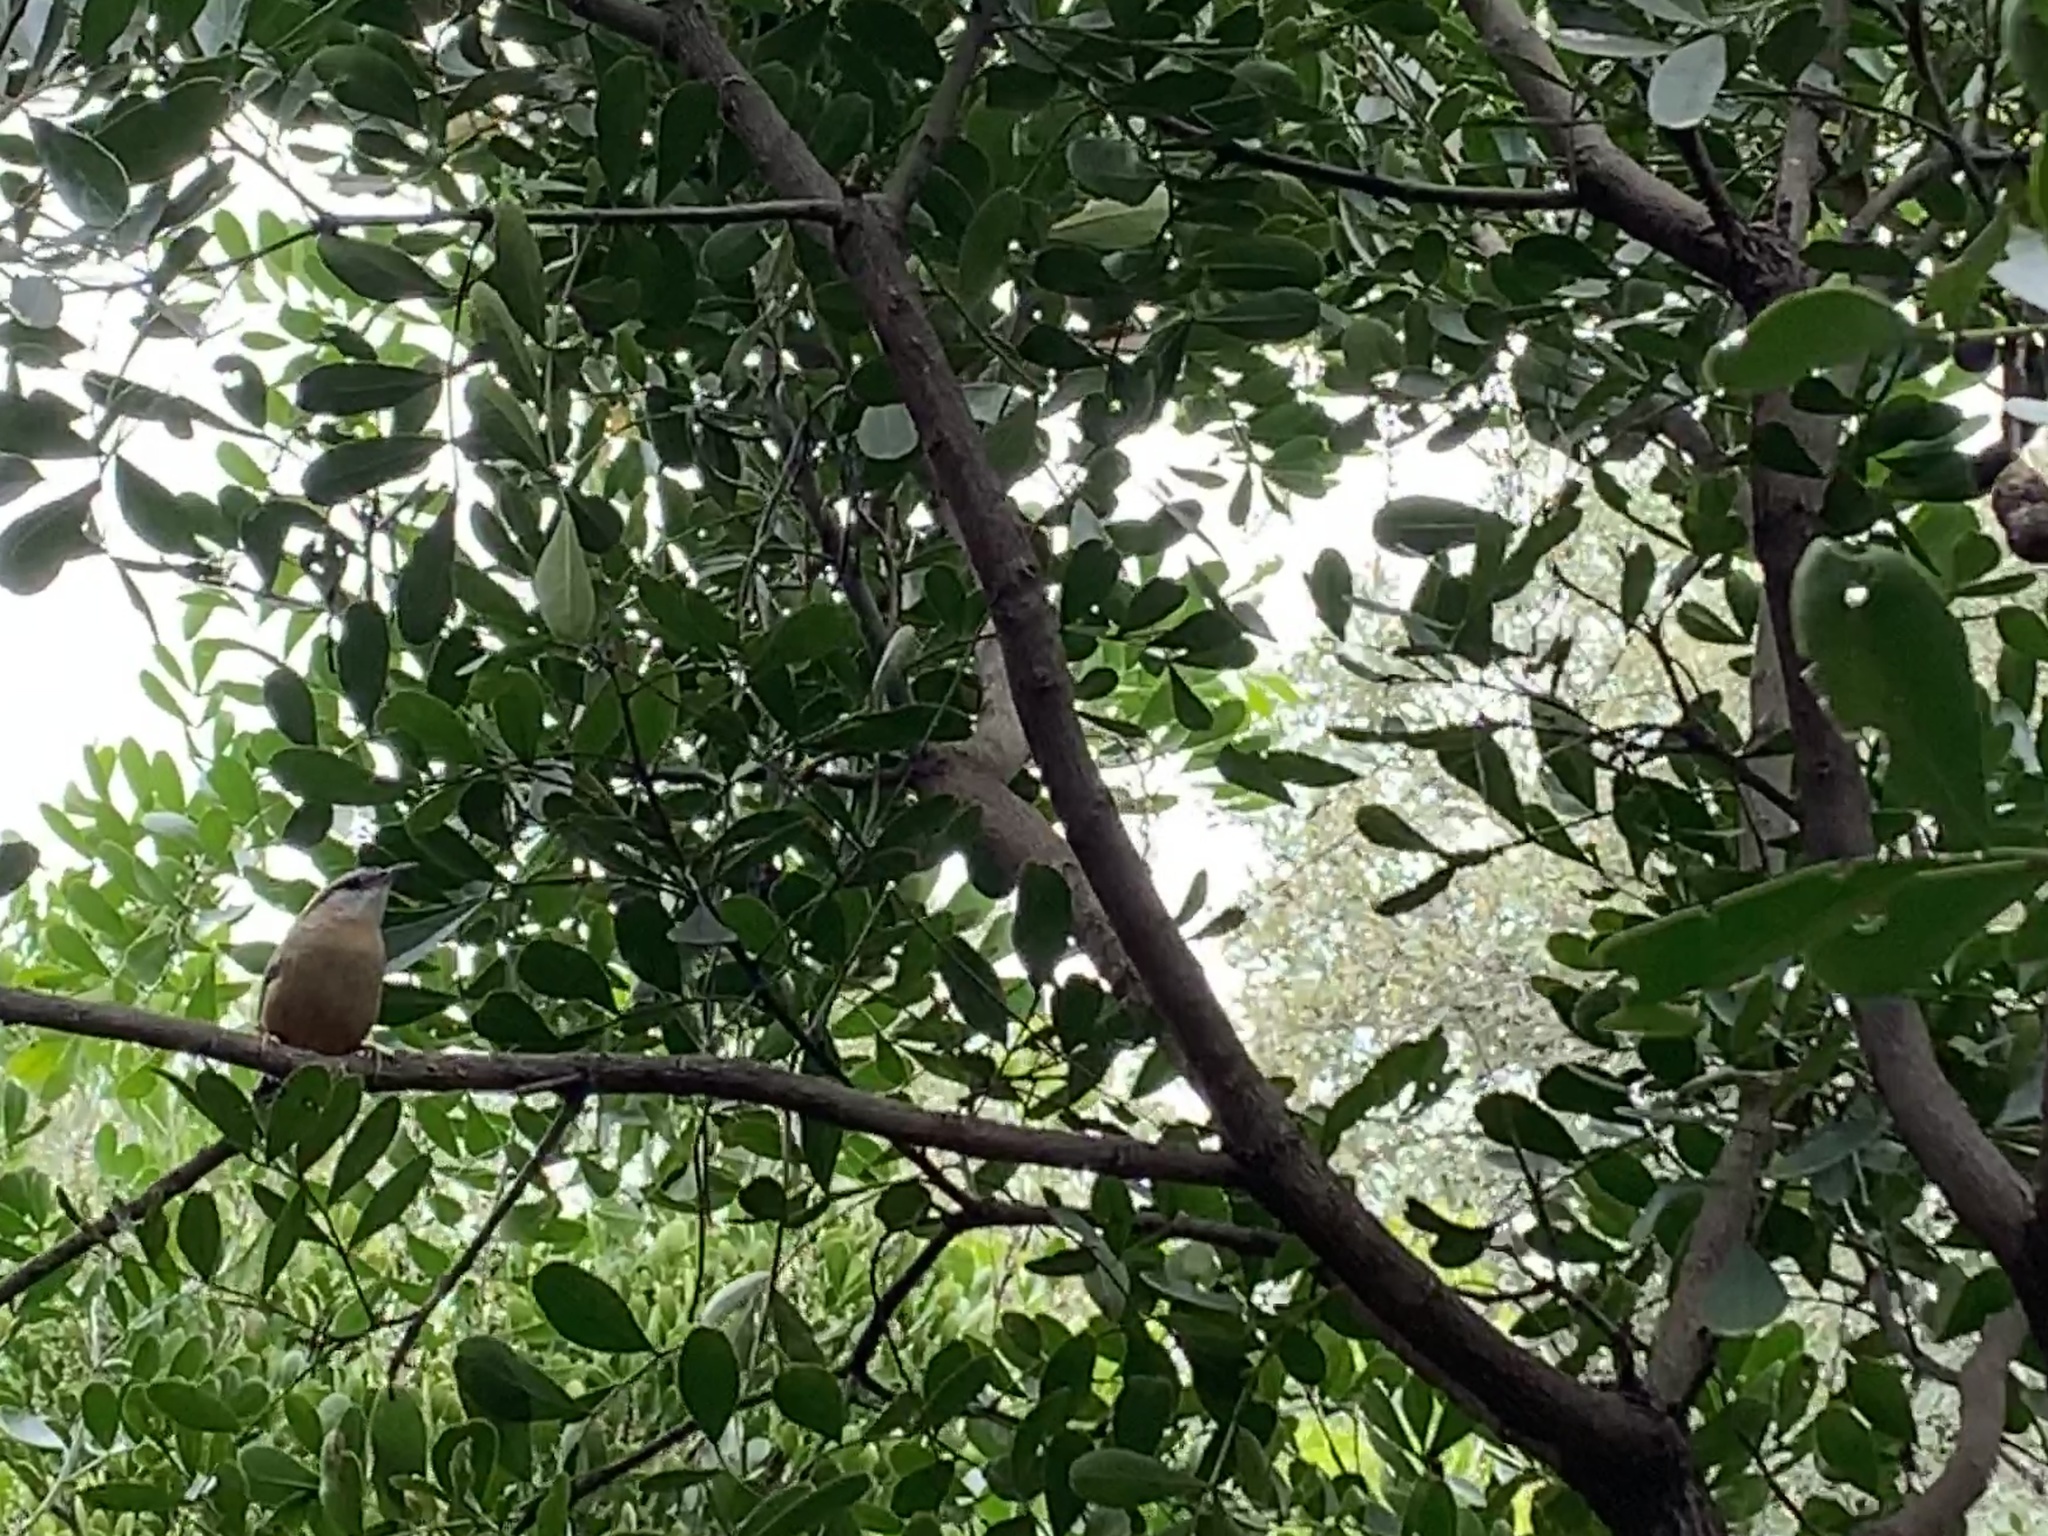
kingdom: Animalia
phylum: Chordata
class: Aves
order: Passeriformes
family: Troglodytidae
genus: Thryothorus
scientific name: Thryothorus ludovicianus
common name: Carolina wren
